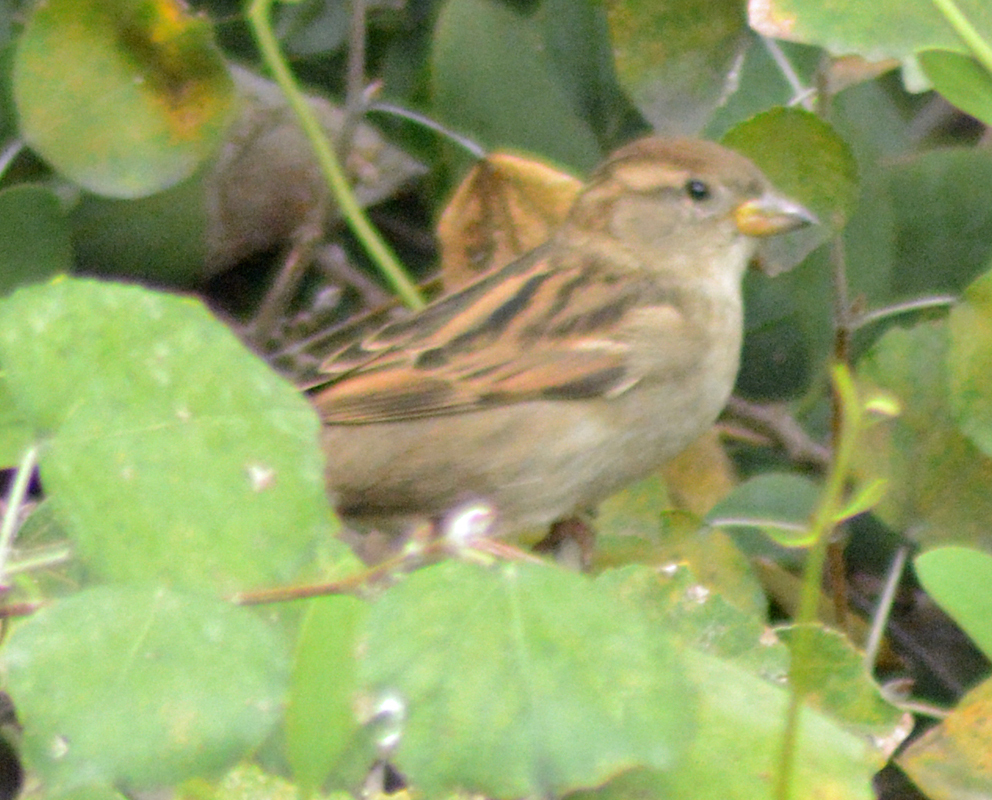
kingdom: Animalia
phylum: Chordata
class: Aves
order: Passeriformes
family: Passeridae
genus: Passer
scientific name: Passer domesticus
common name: House sparrow
